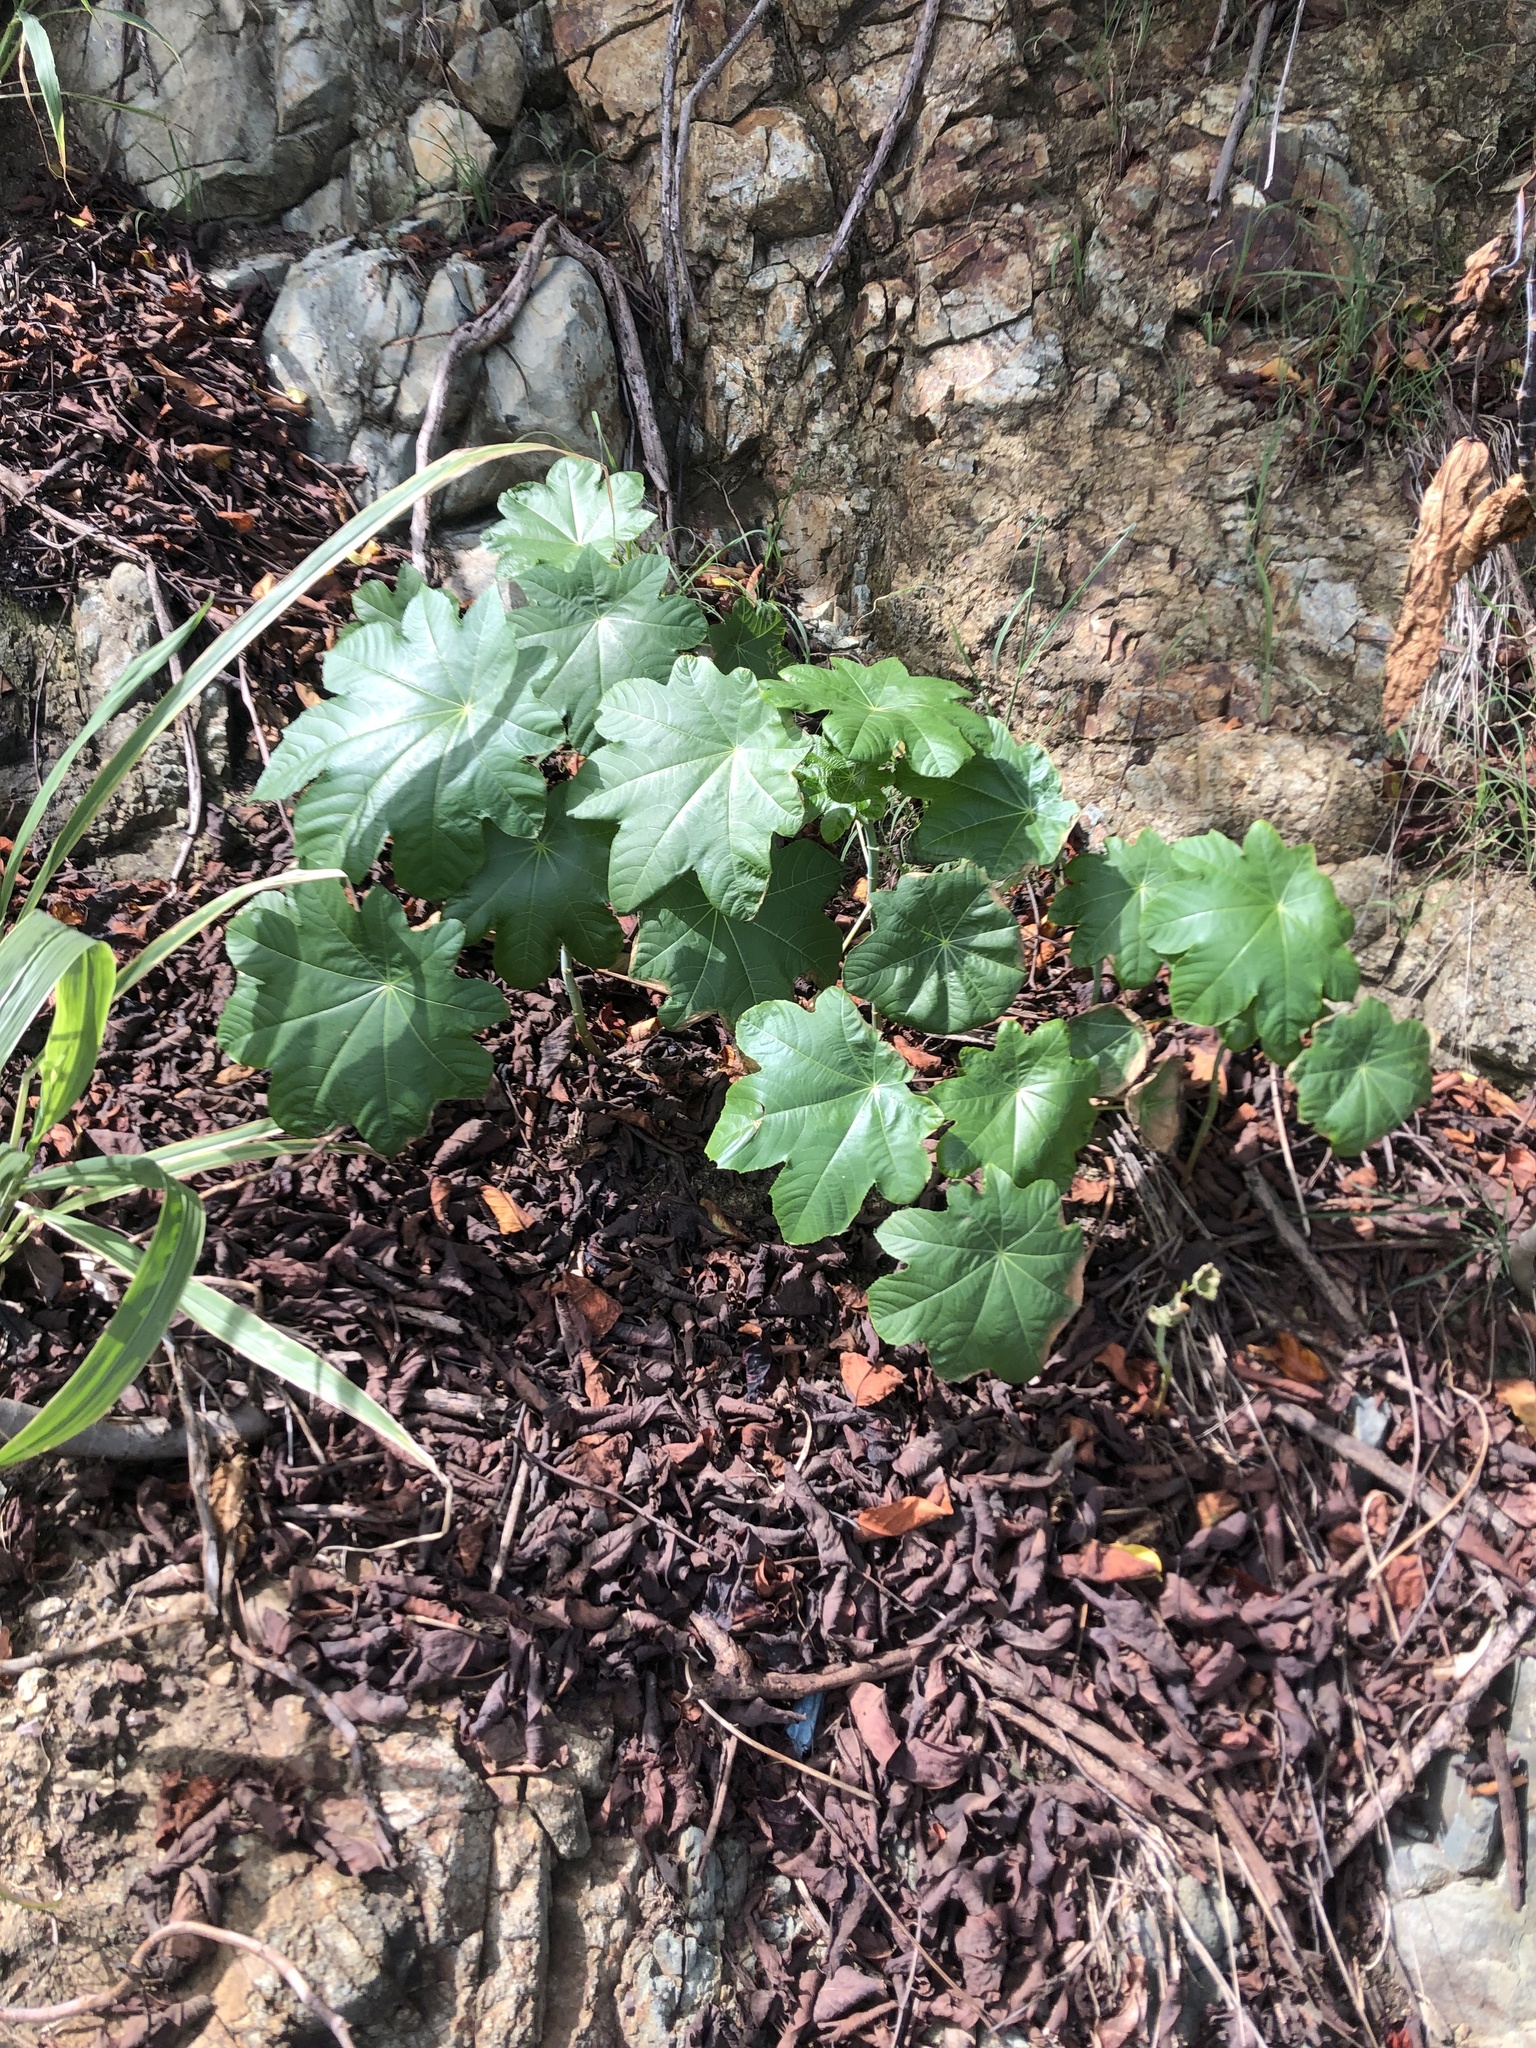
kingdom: Plantae
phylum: Tracheophyta
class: Magnoliopsida
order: Rosales
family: Urticaceae
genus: Cecropia
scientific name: Cecropia schreberiana
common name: Trumpet tree
